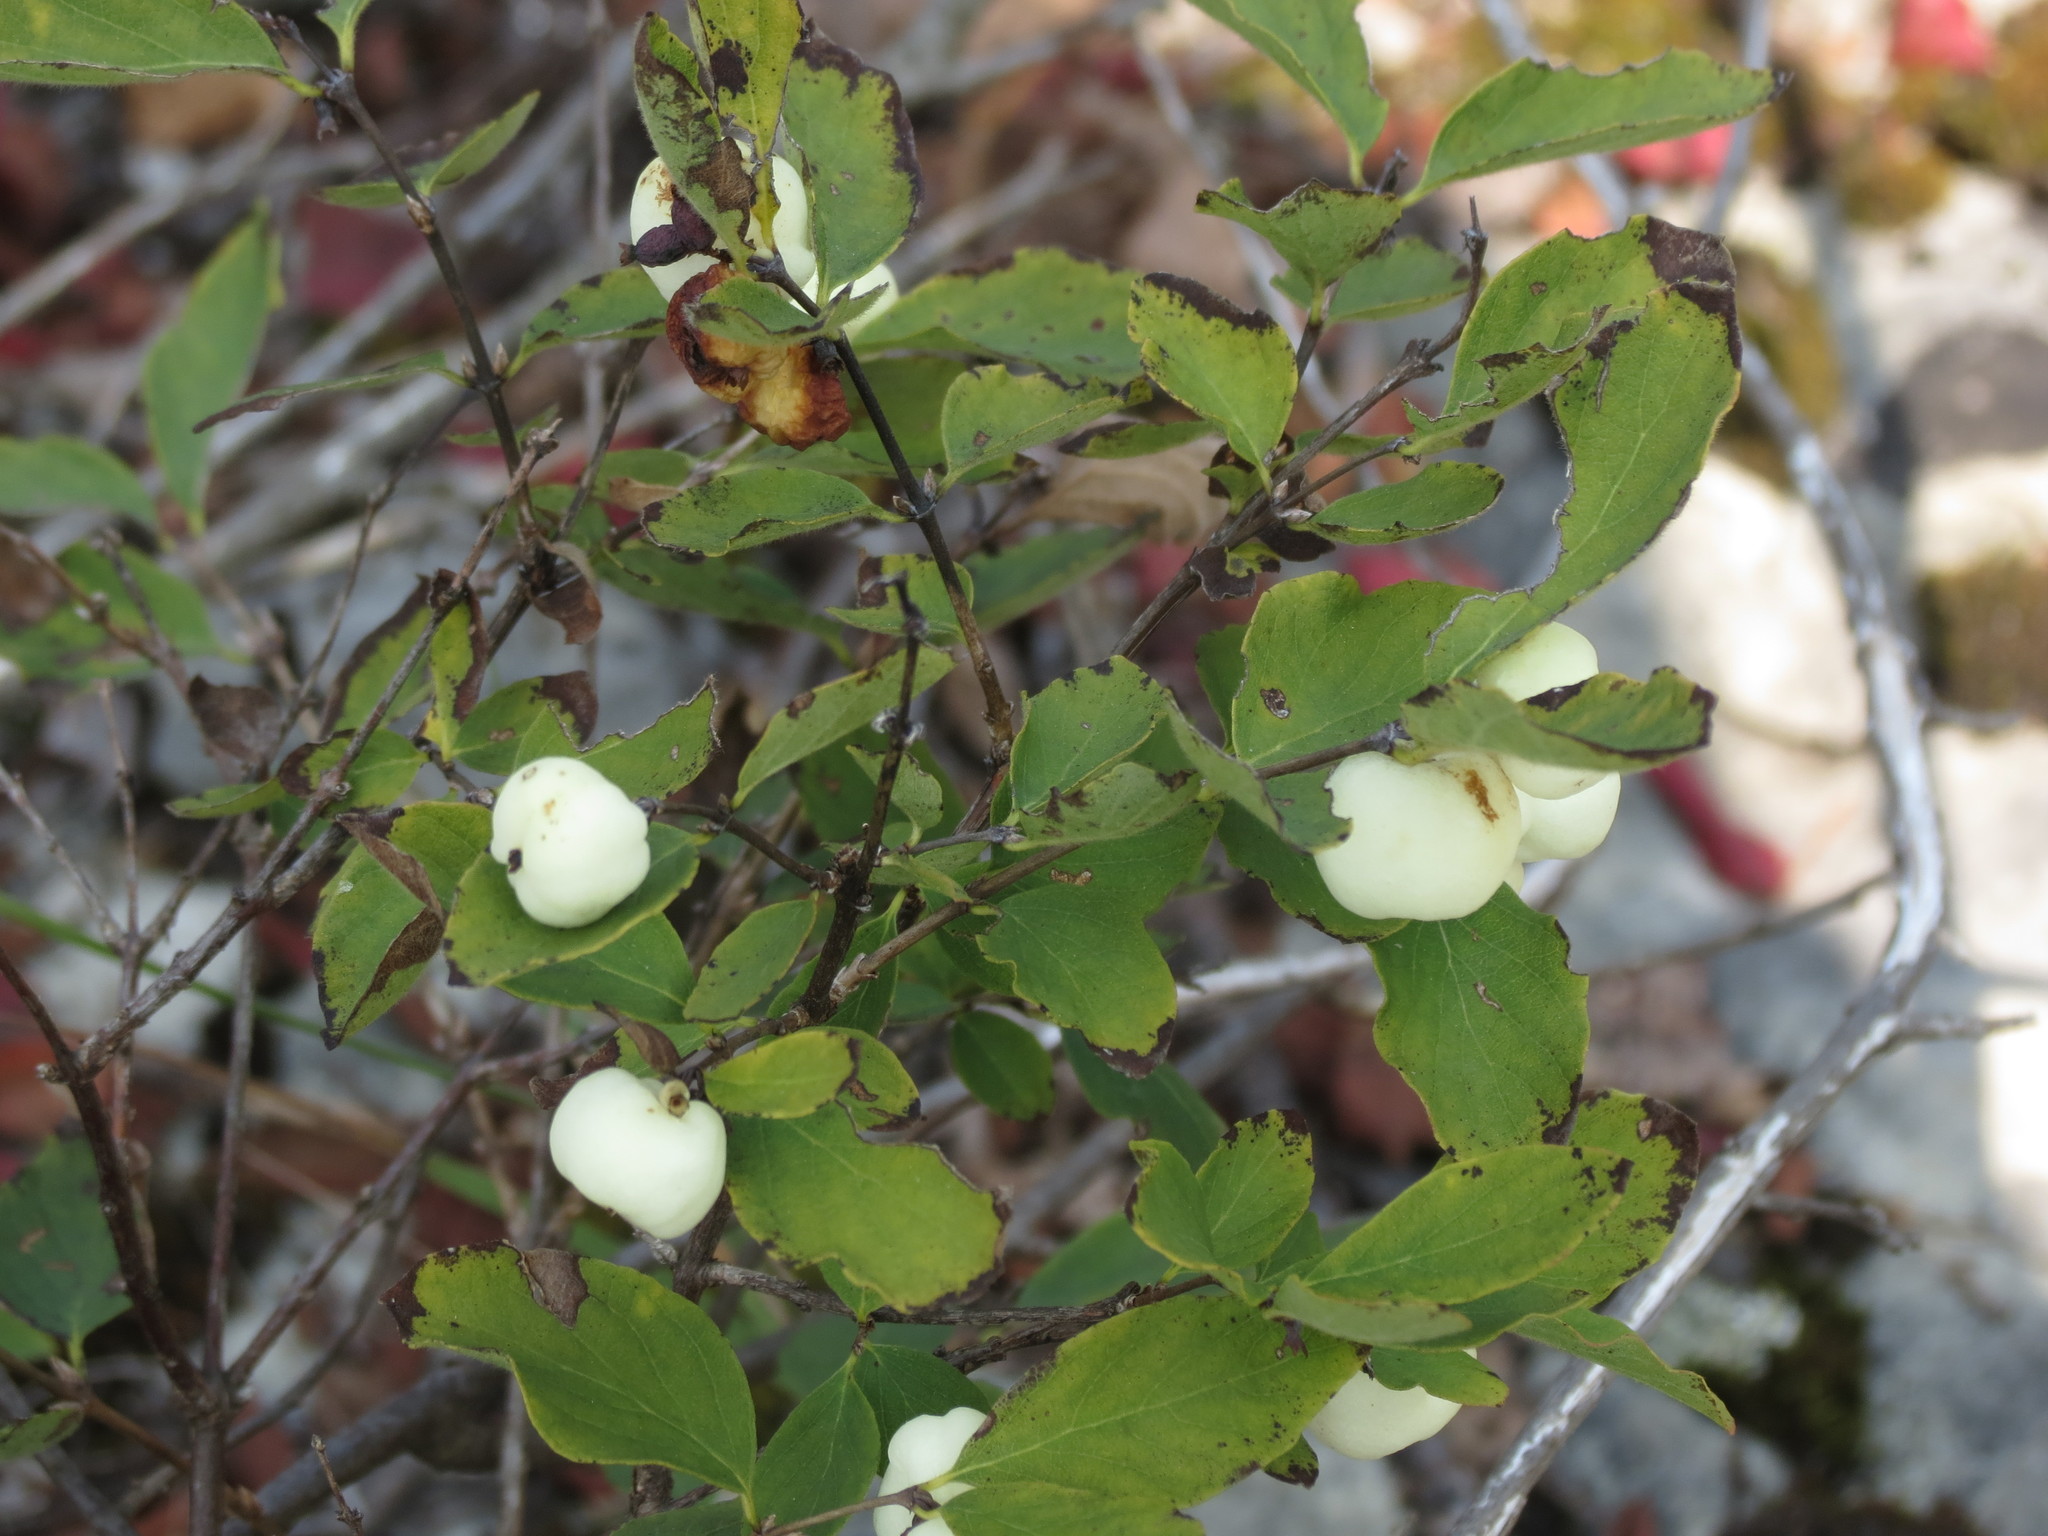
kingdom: Plantae
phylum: Tracheophyta
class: Magnoliopsida
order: Dipsacales
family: Caprifoliaceae
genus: Symphoricarpos
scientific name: Symphoricarpos albus
